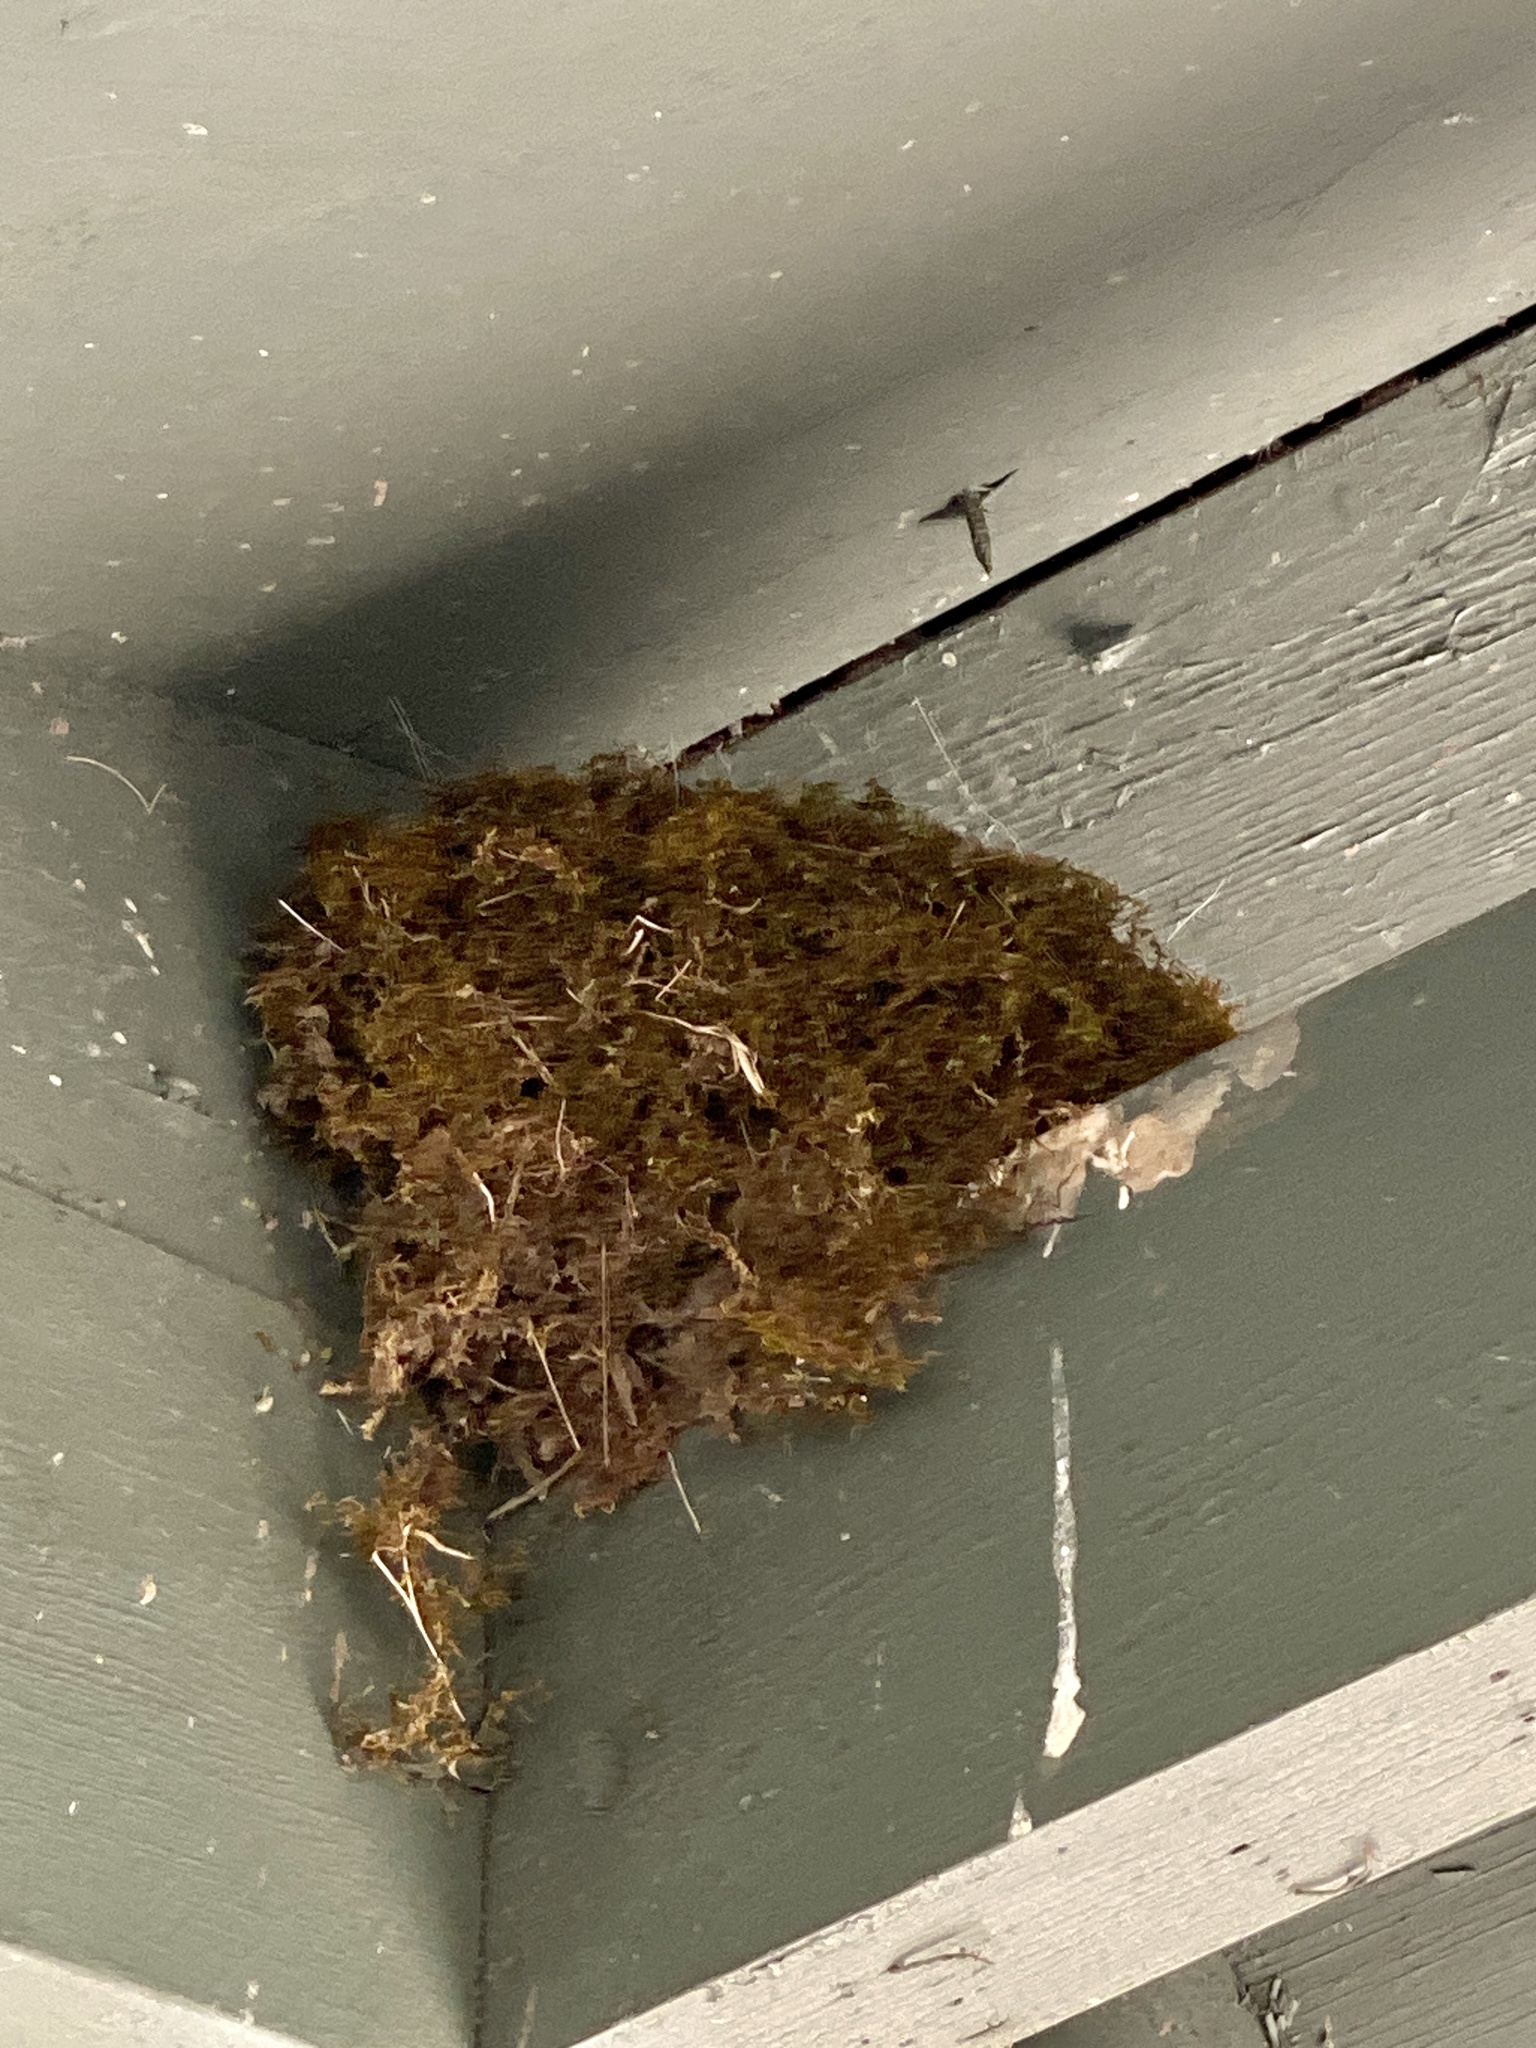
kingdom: Animalia
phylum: Chordata
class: Aves
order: Passeriformes
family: Tyrannidae
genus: Sayornis
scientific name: Sayornis phoebe
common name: Eastern phoebe
